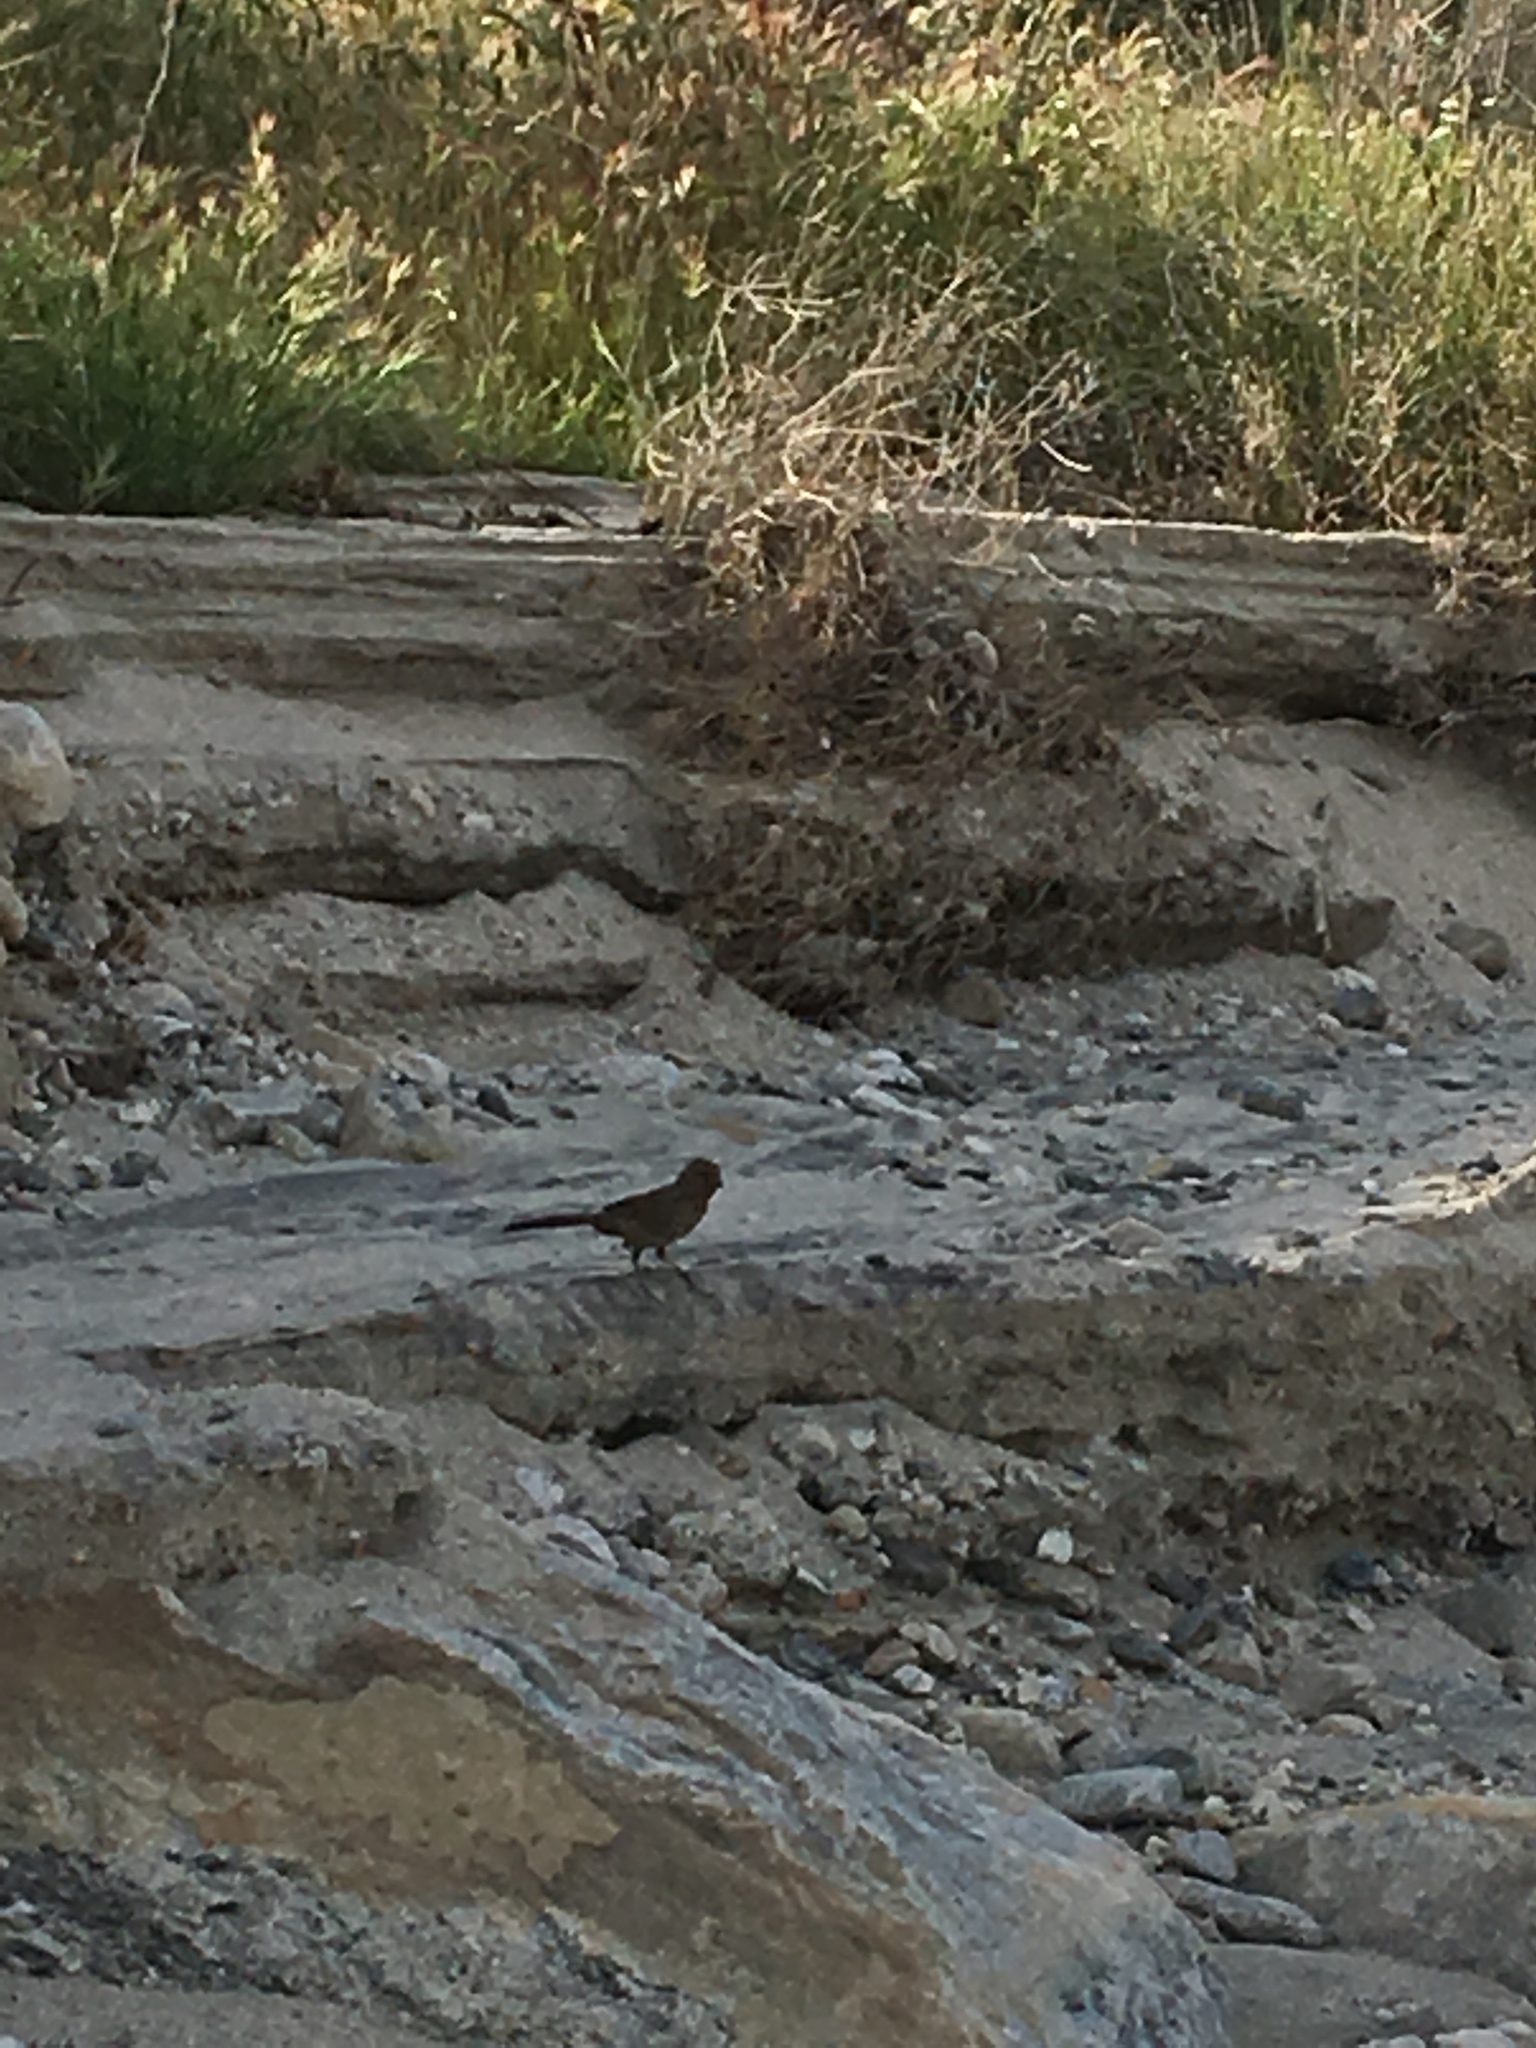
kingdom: Animalia
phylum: Chordata
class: Aves
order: Passeriformes
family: Passerellidae
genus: Melozone
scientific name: Melozone crissalis
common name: California towhee
